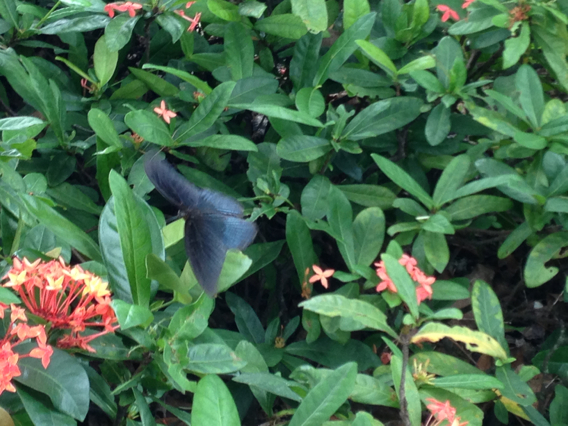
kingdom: Animalia
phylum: Arthropoda
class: Insecta
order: Lepidoptera
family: Papilionidae
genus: Papilio
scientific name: Papilio memnon
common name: Great mormon
